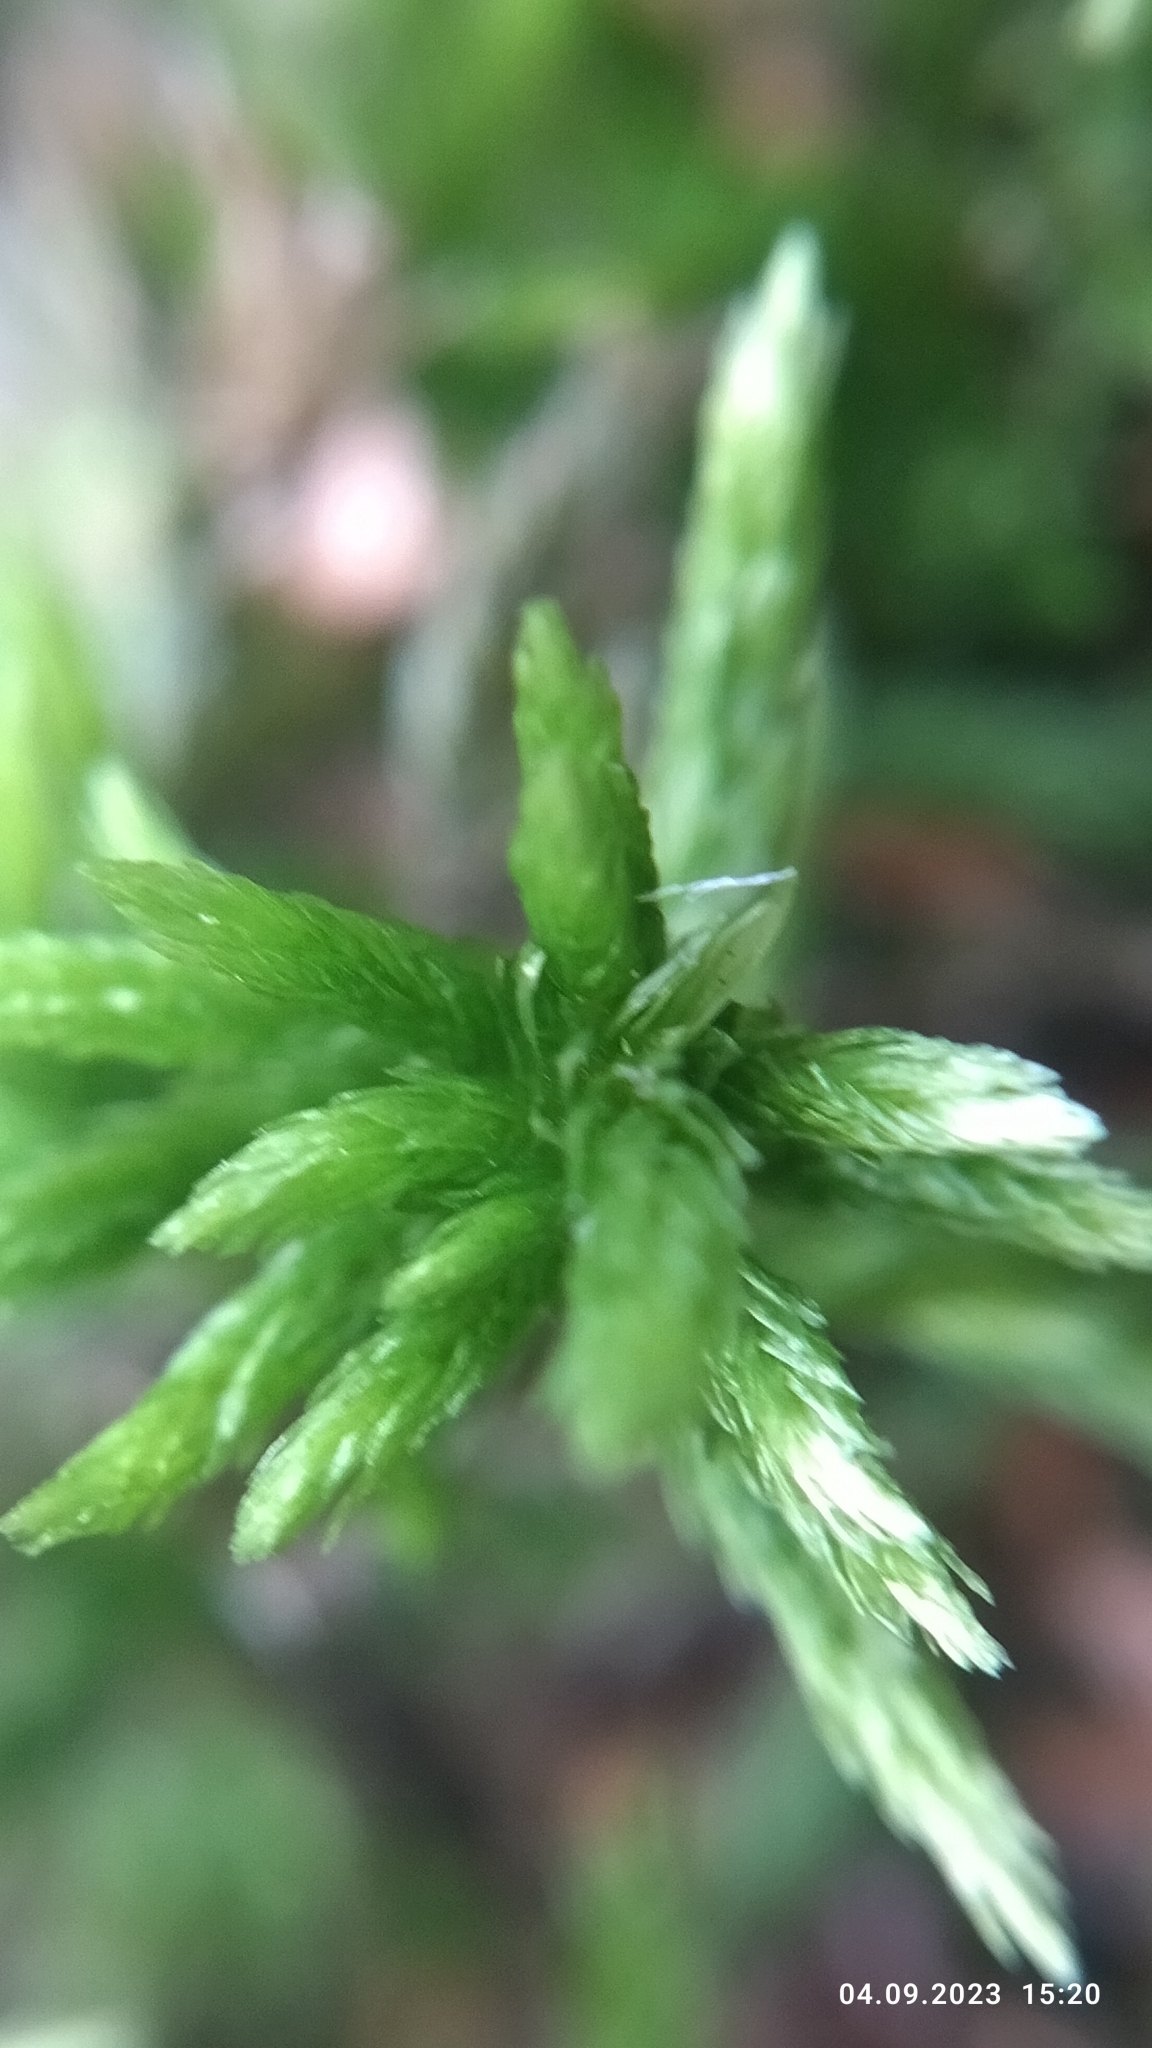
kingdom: Plantae
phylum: Bryophyta
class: Bryopsida
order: Hypnales
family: Climaciaceae
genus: Climacium
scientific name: Climacium dendroides
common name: Northern tree moss
